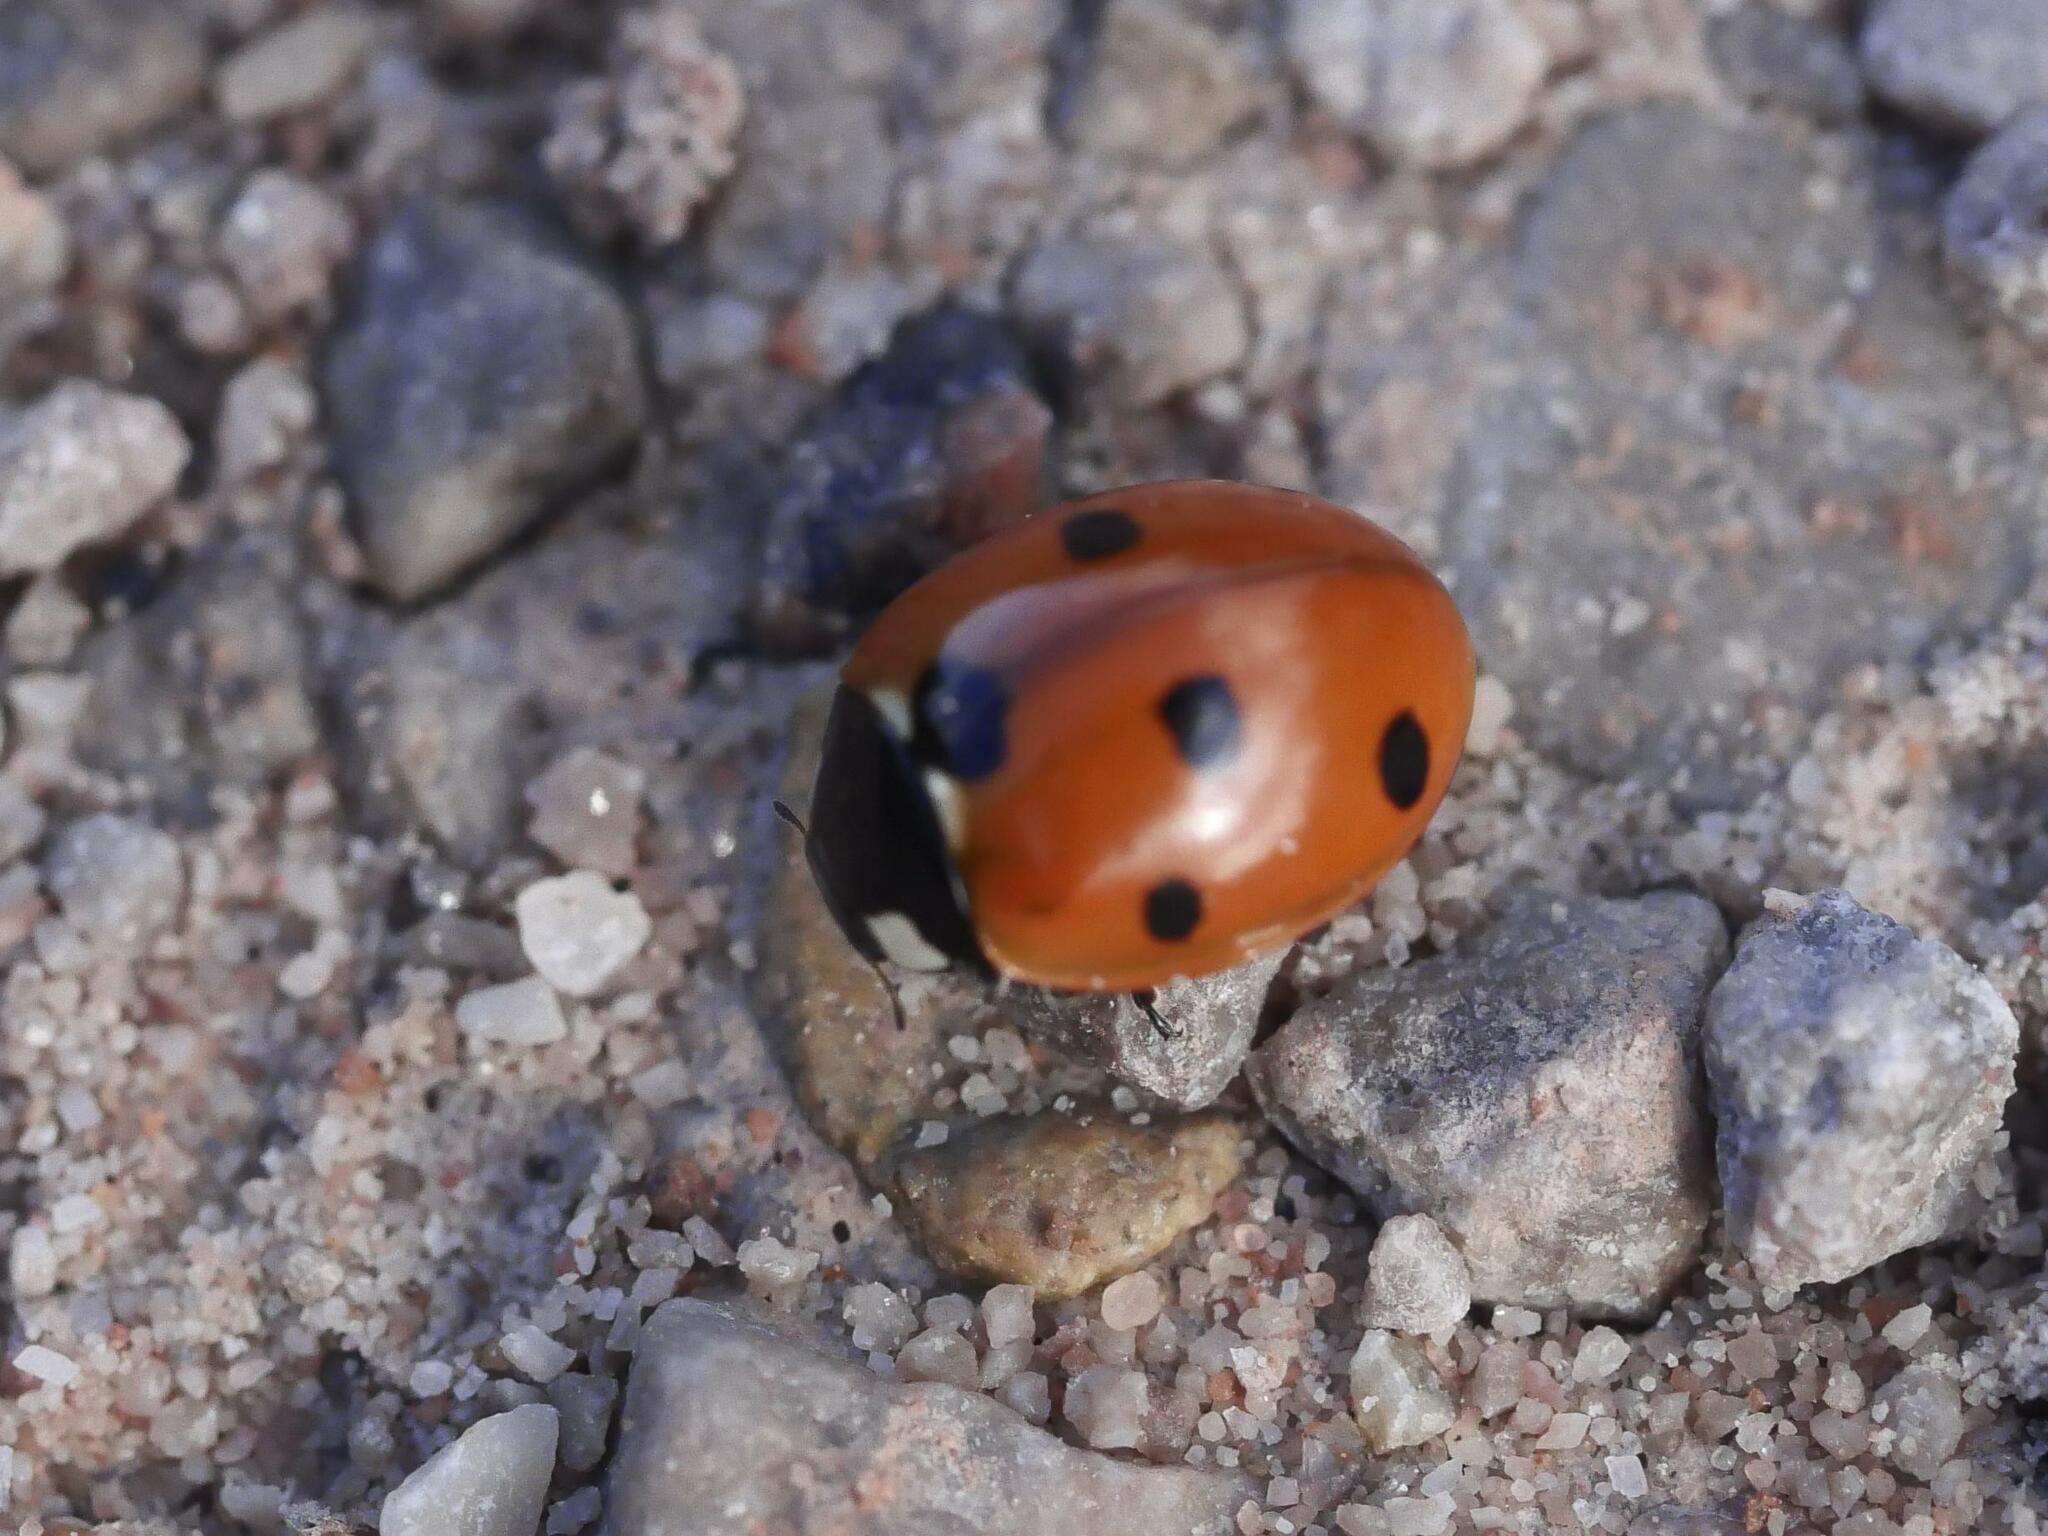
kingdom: Animalia
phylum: Arthropoda
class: Insecta
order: Coleoptera
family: Coccinellidae
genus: Coccinella
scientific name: Coccinella septempunctata
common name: Sevenspotted lady beetle
